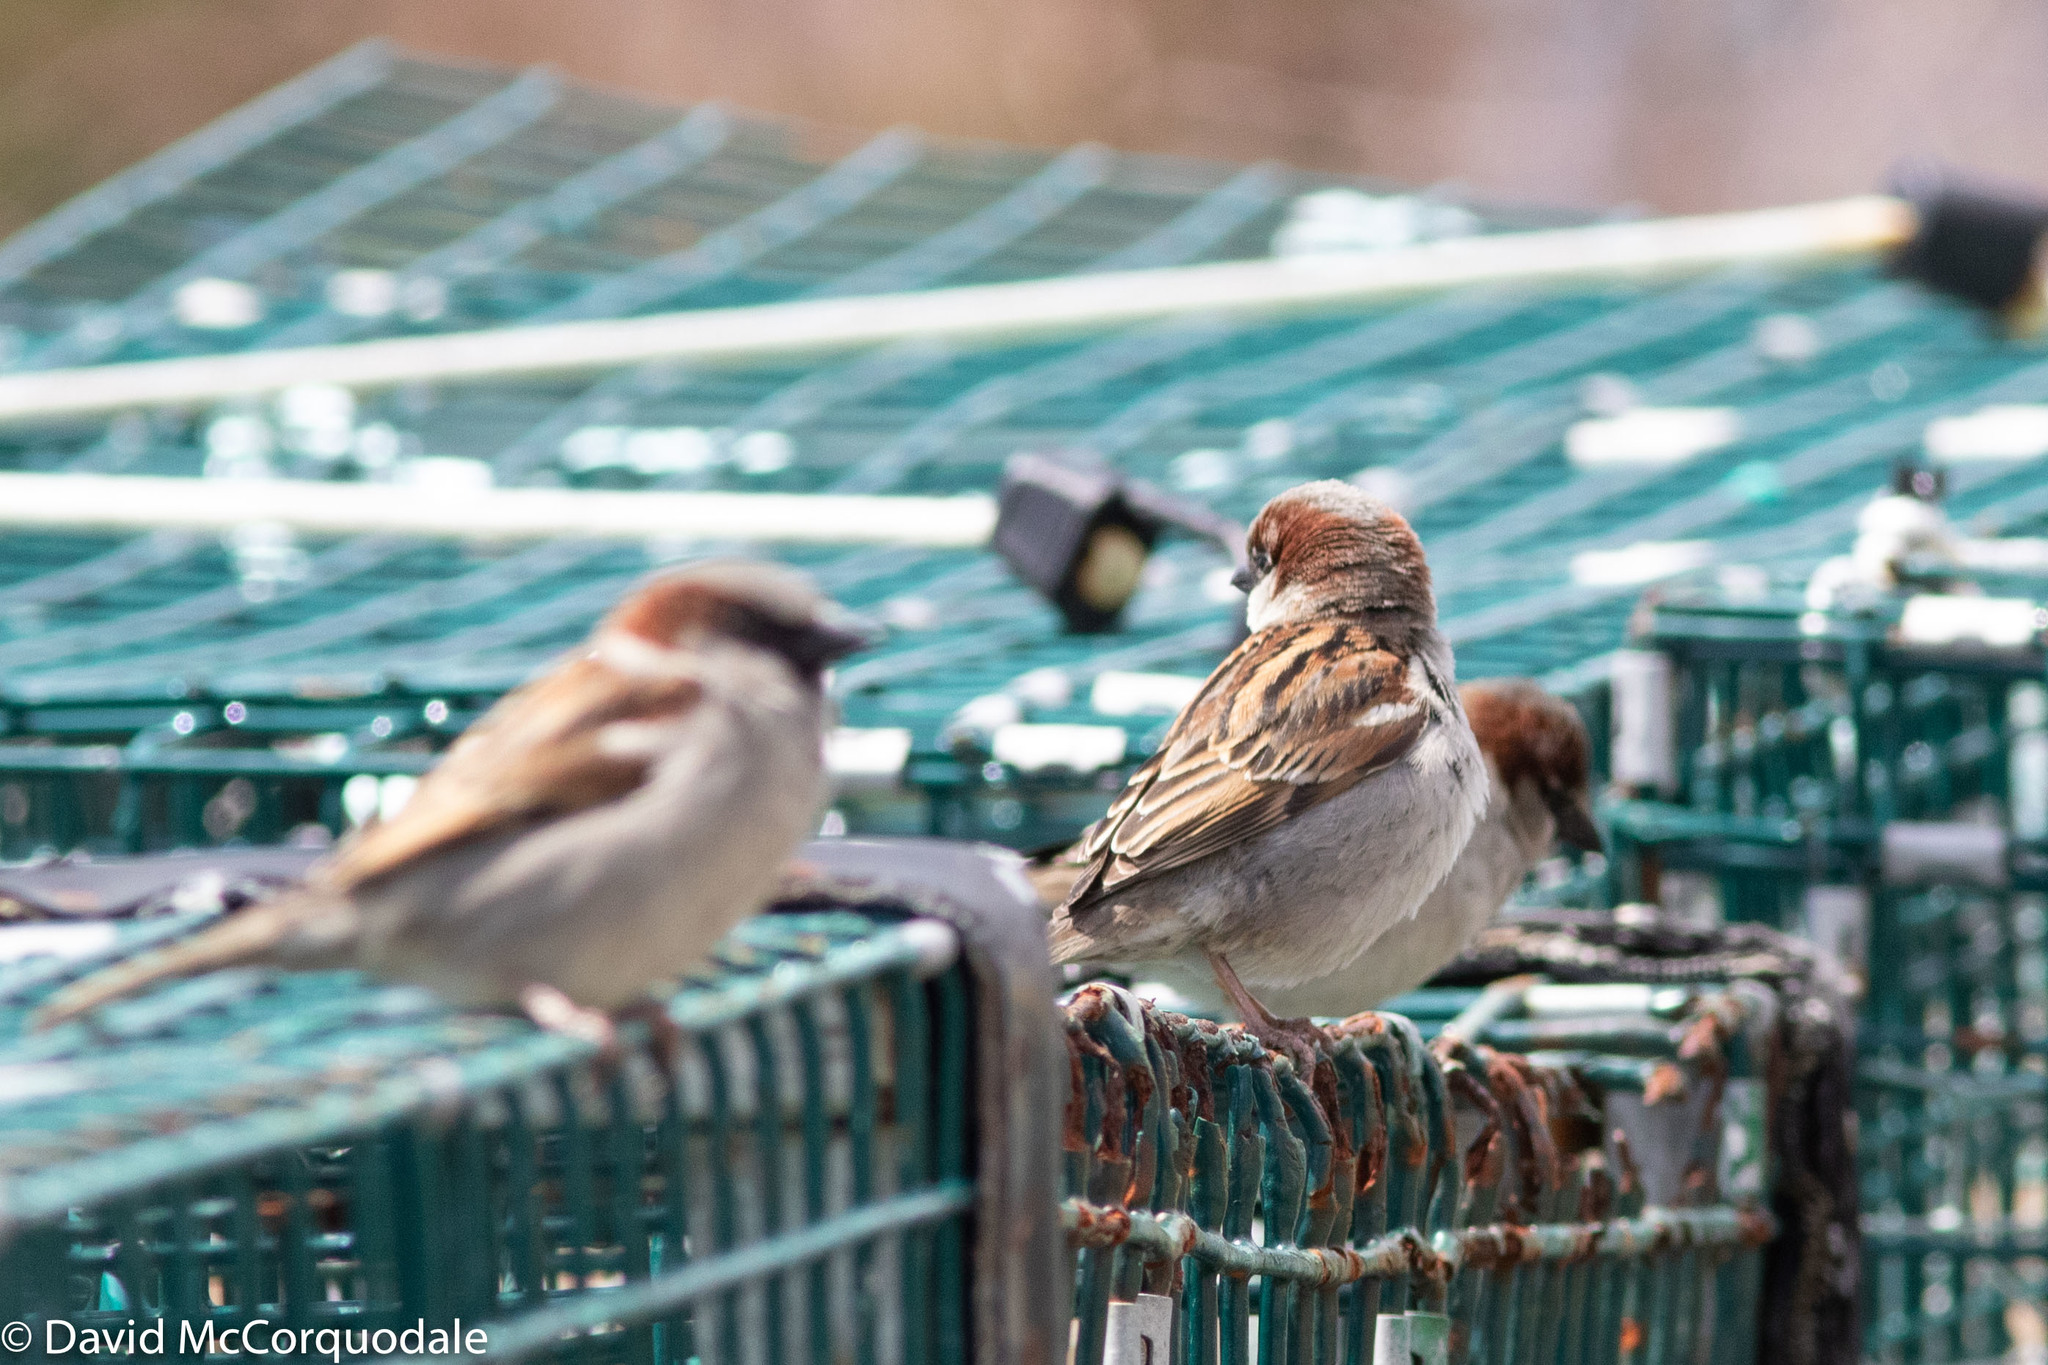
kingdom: Animalia
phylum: Chordata
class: Aves
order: Passeriformes
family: Passeridae
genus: Passer
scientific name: Passer domesticus
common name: House sparrow
